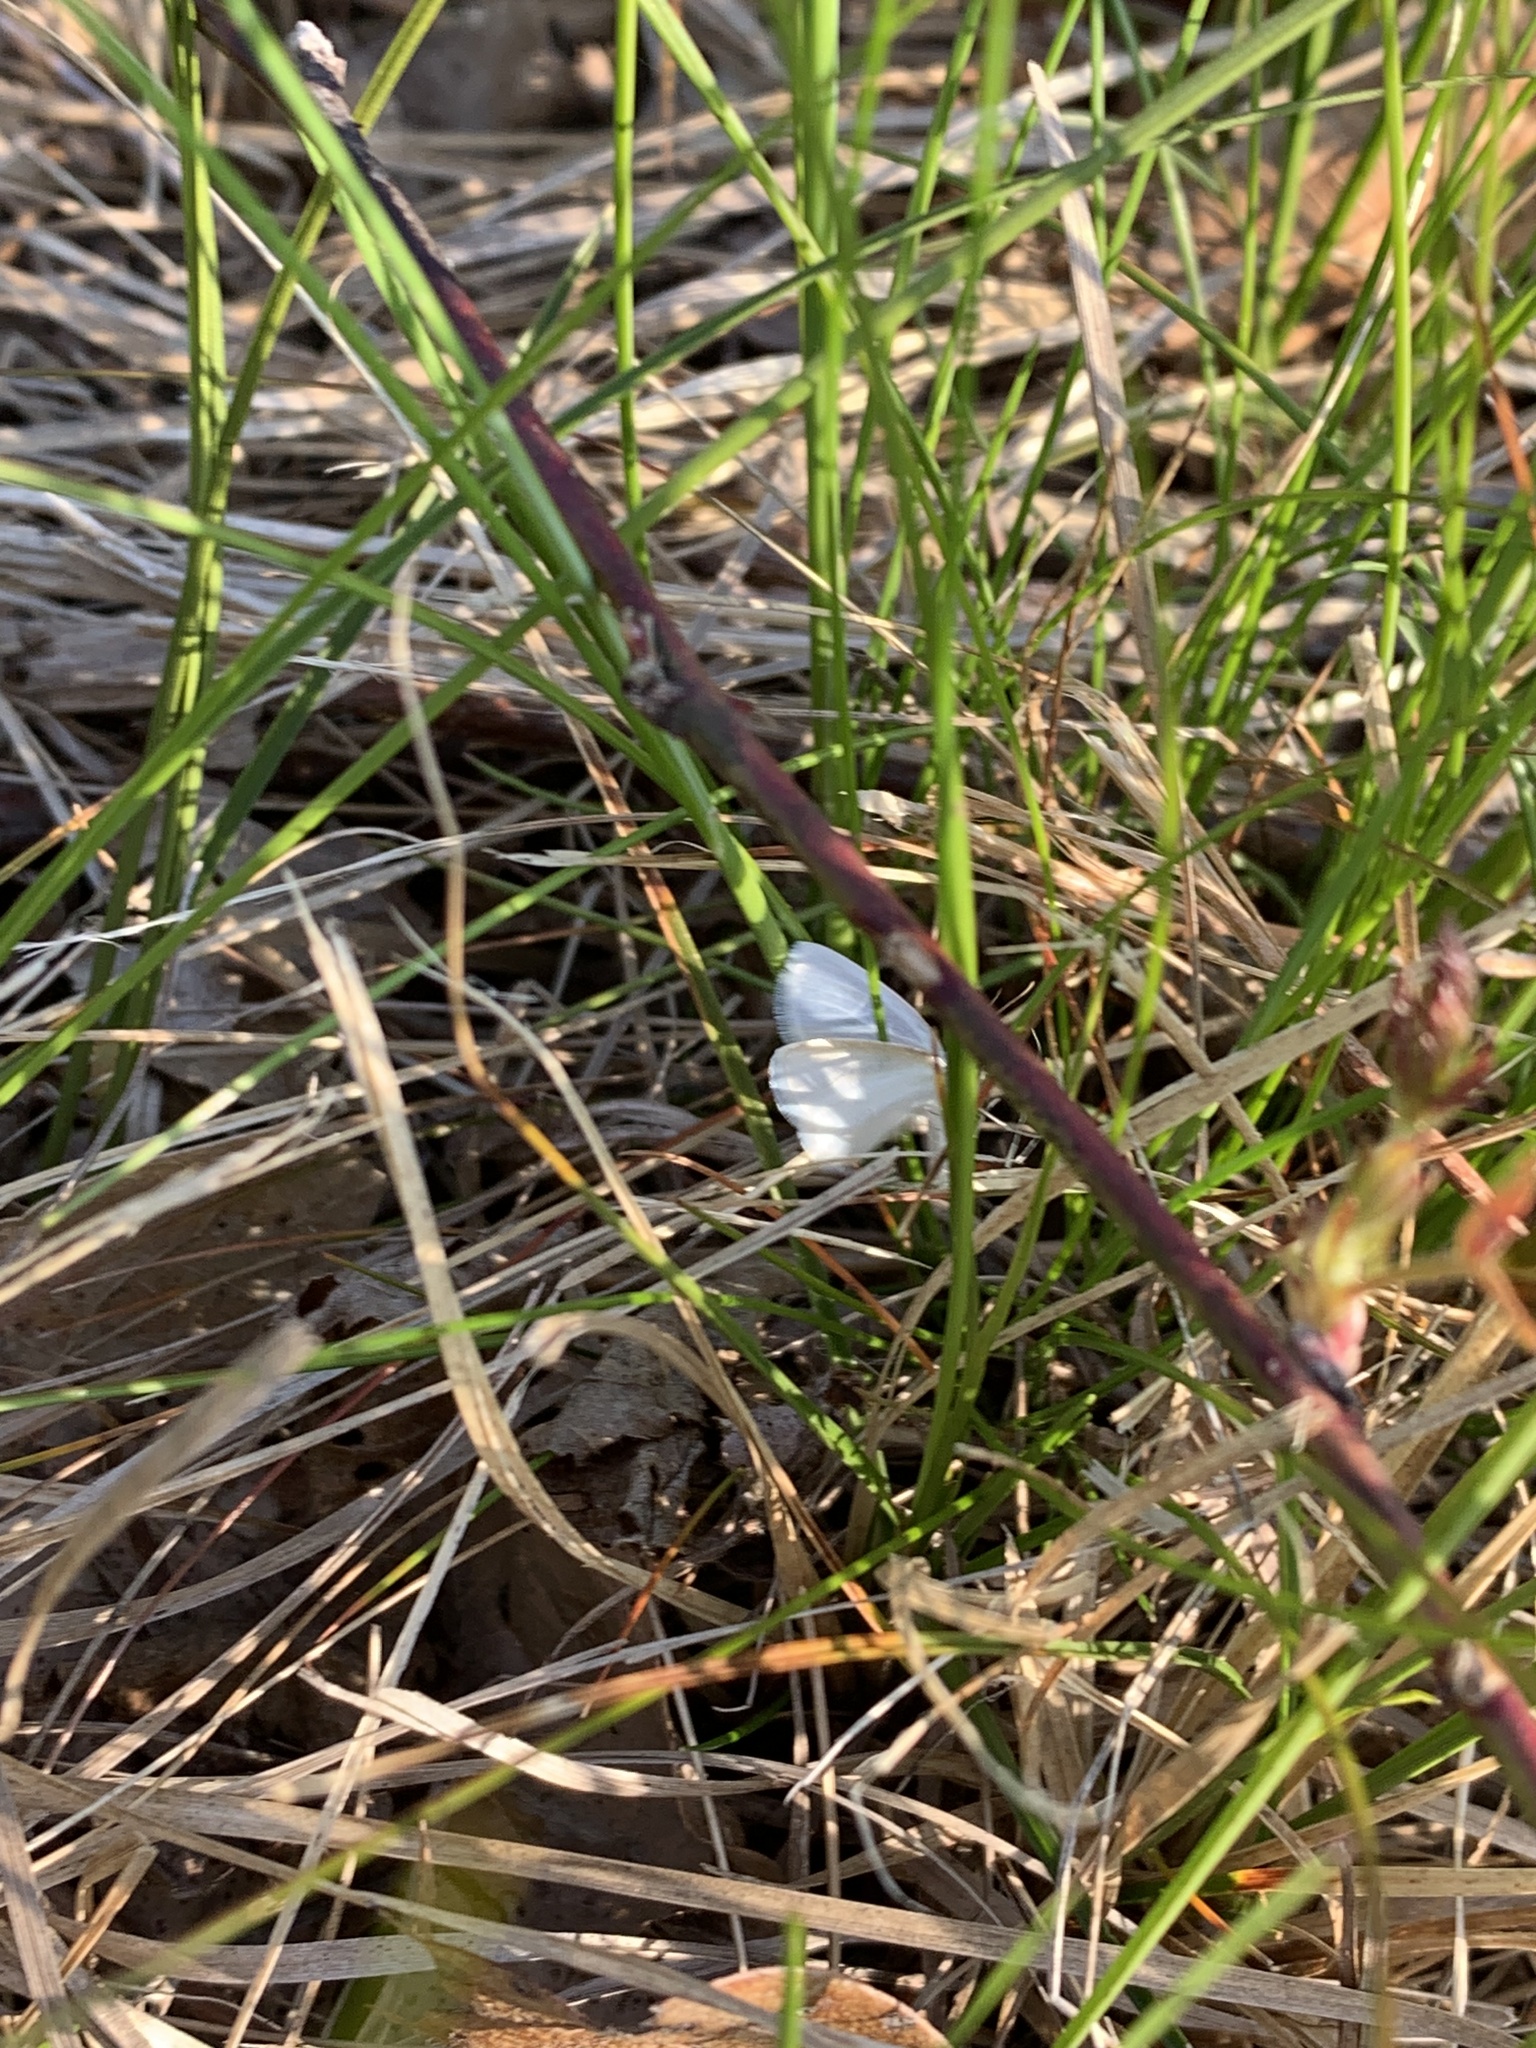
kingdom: Animalia
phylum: Arthropoda
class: Insecta
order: Lepidoptera
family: Geometridae
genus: Lomographa
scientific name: Lomographa vestaliata
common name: White spring moth
